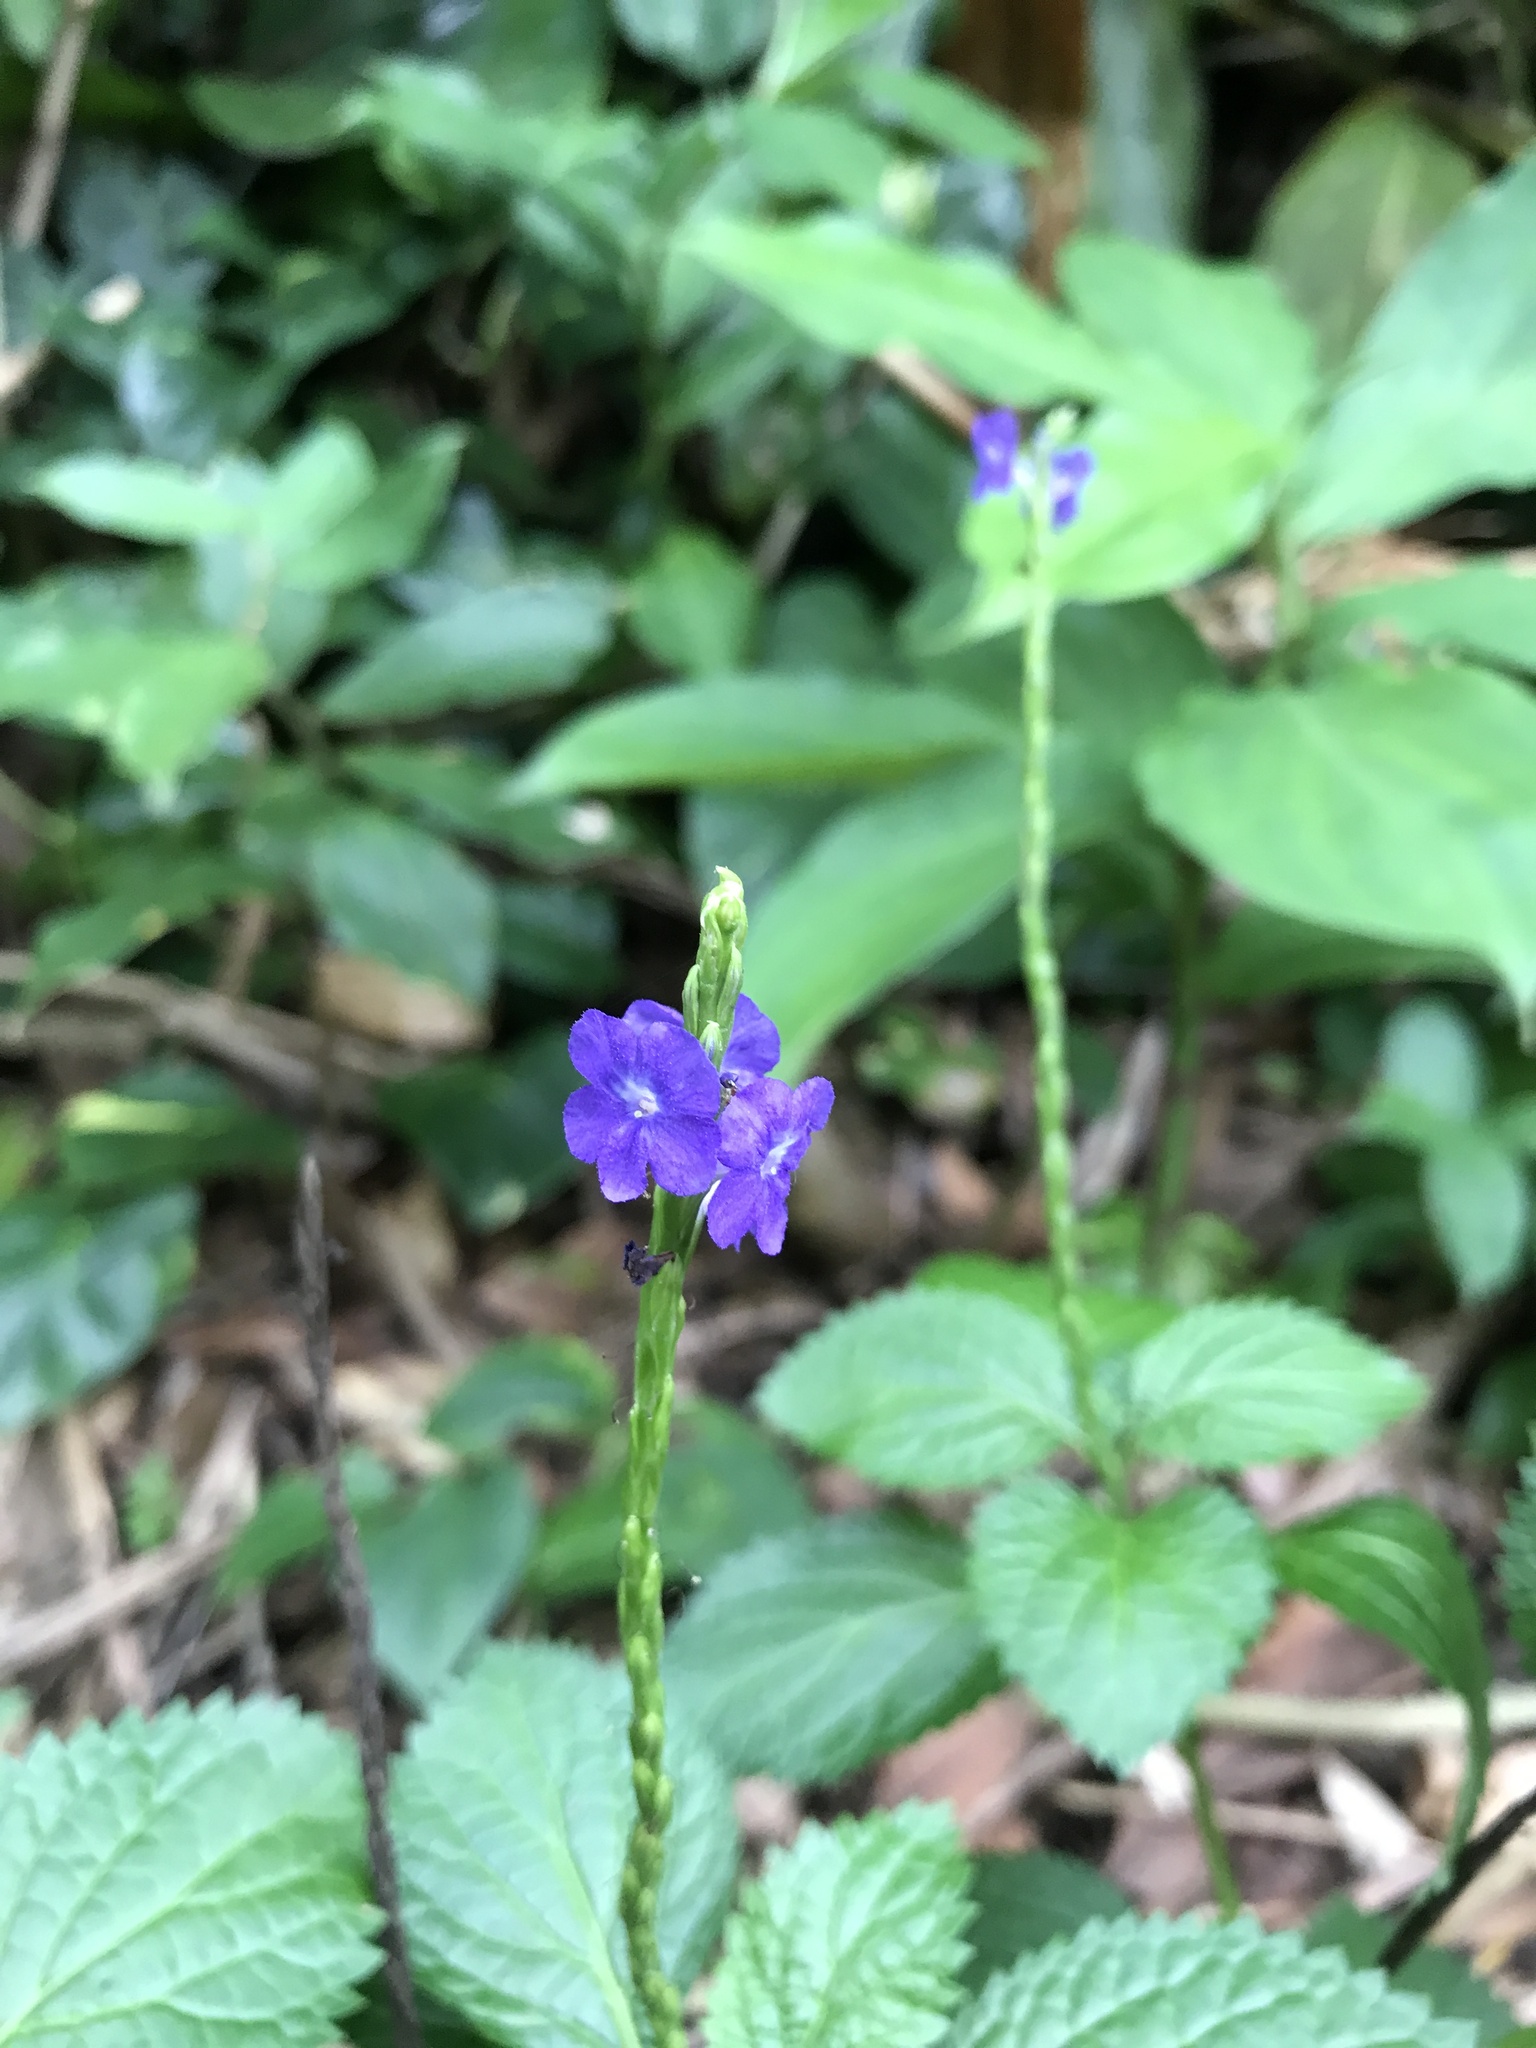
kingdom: Plantae
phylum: Tracheophyta
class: Magnoliopsida
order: Lamiales
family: Verbenaceae
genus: Stachytarpheta
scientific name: Stachytarpheta cayennensis
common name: Cayenne porterweed
